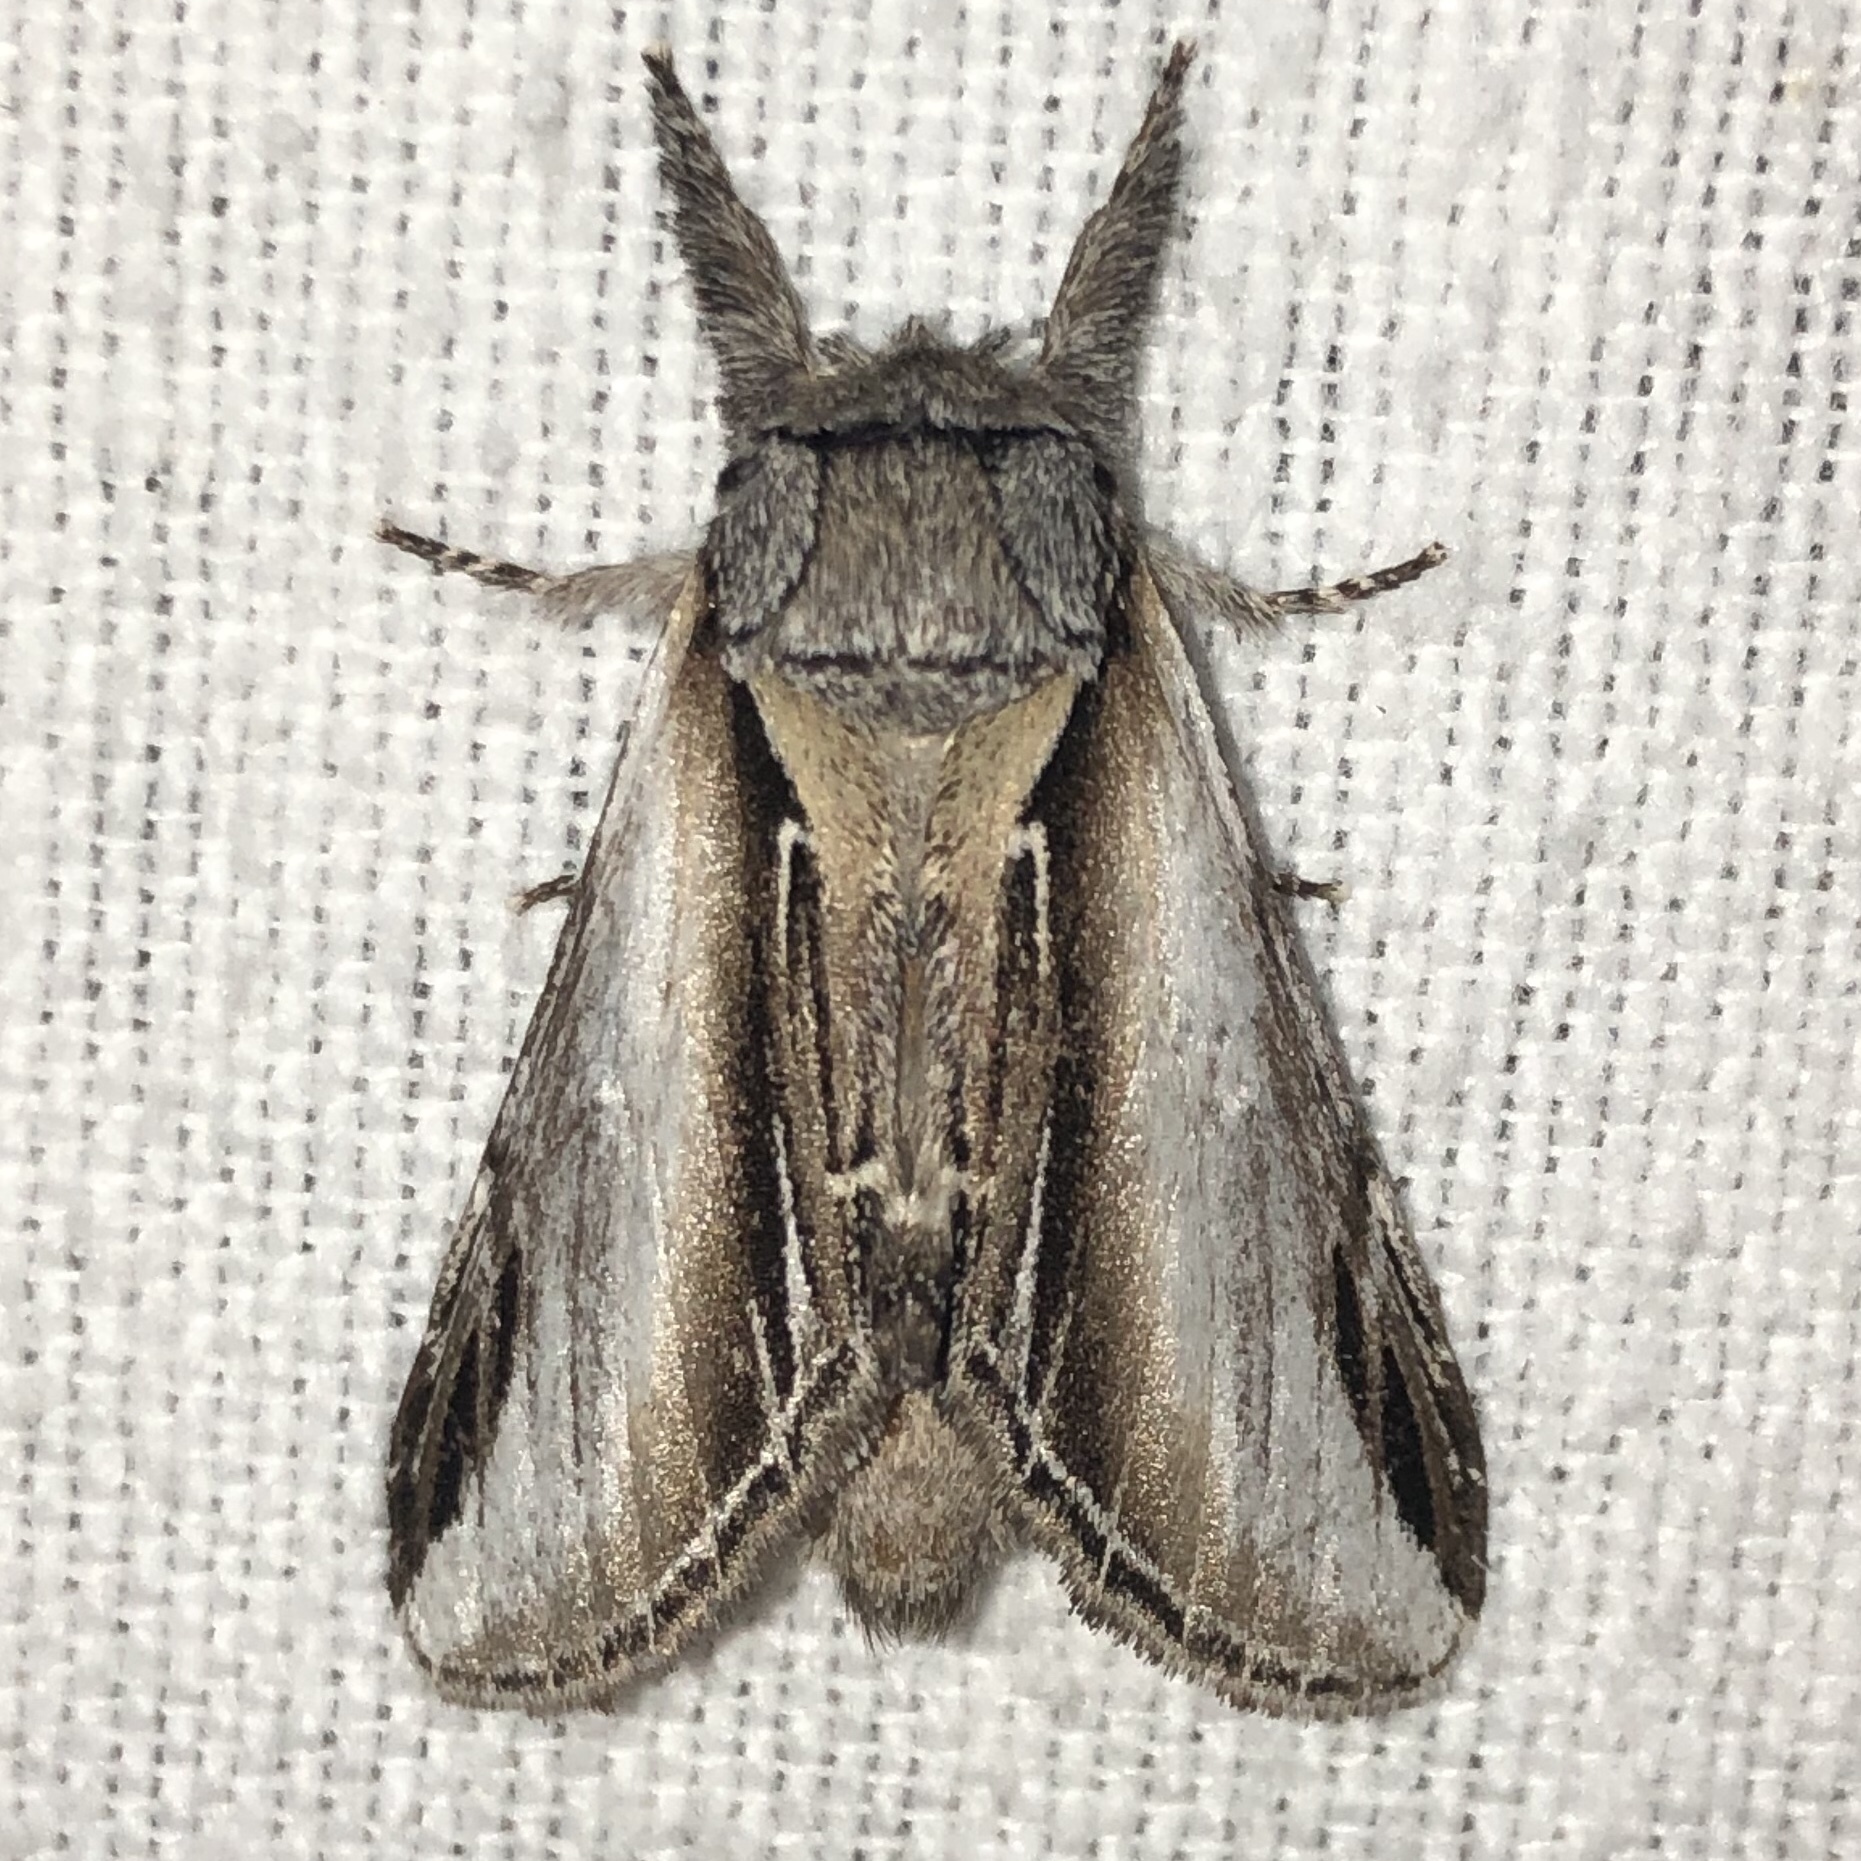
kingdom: Animalia
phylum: Arthropoda
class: Insecta
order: Lepidoptera
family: Notodontidae
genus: Pheosia
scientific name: Pheosia rimosa
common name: Black-rimmed prominent
